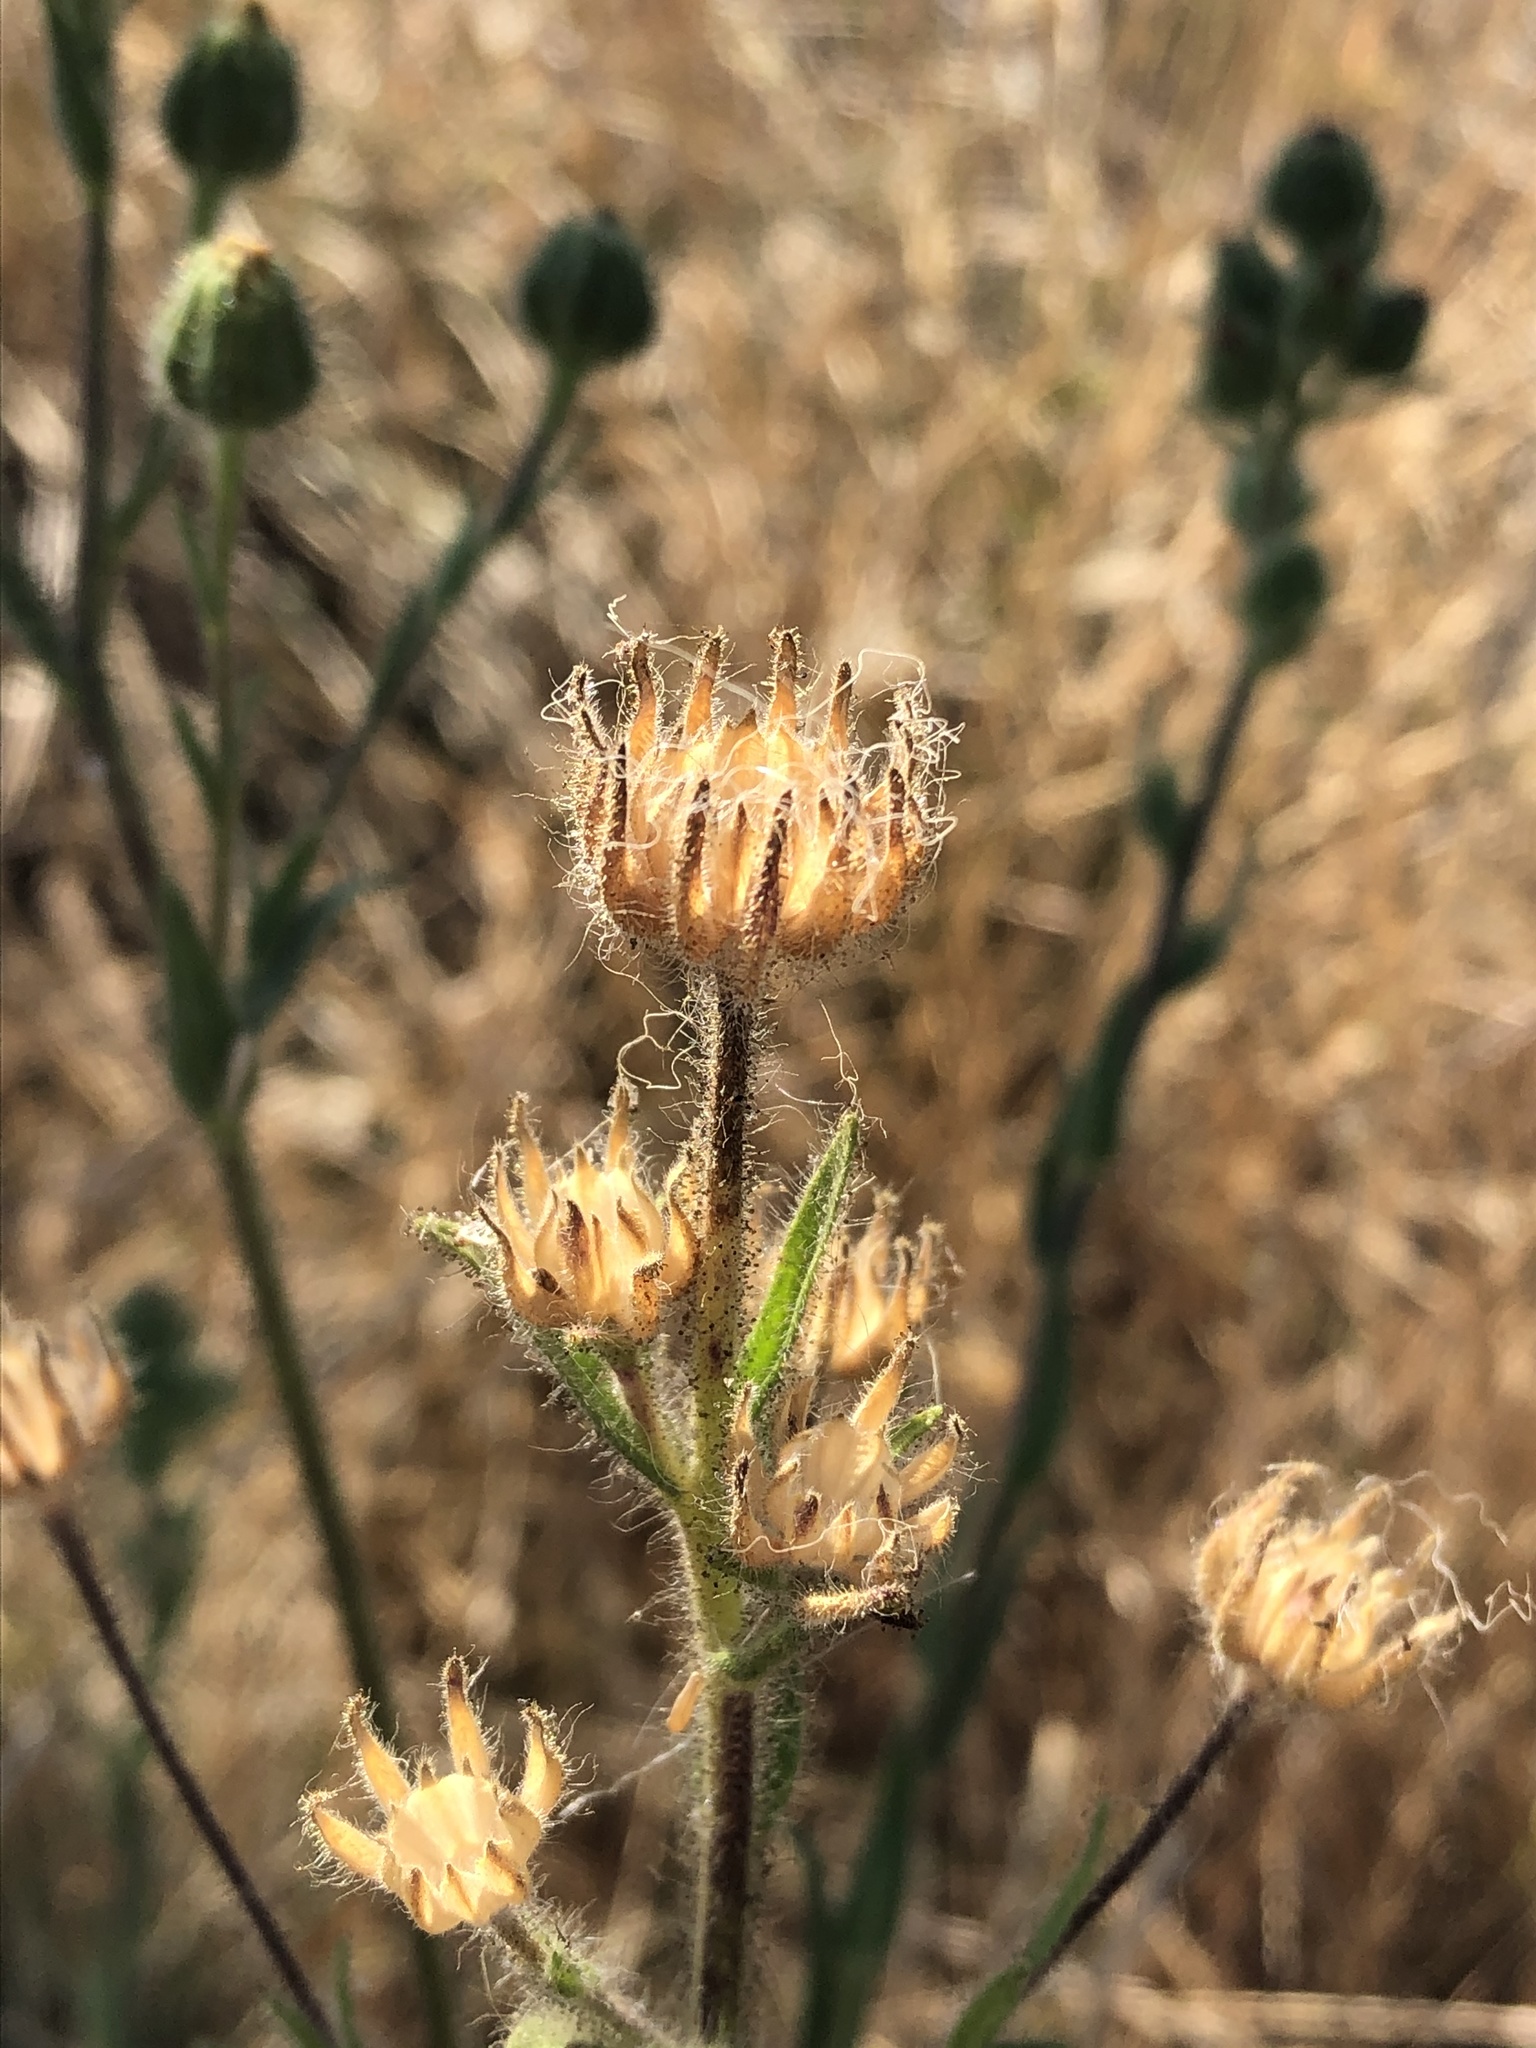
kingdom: Plantae
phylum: Tracheophyta
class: Magnoliopsida
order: Asterales
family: Asteraceae
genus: Madia
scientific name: Madia sativa
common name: Coast tarweed
